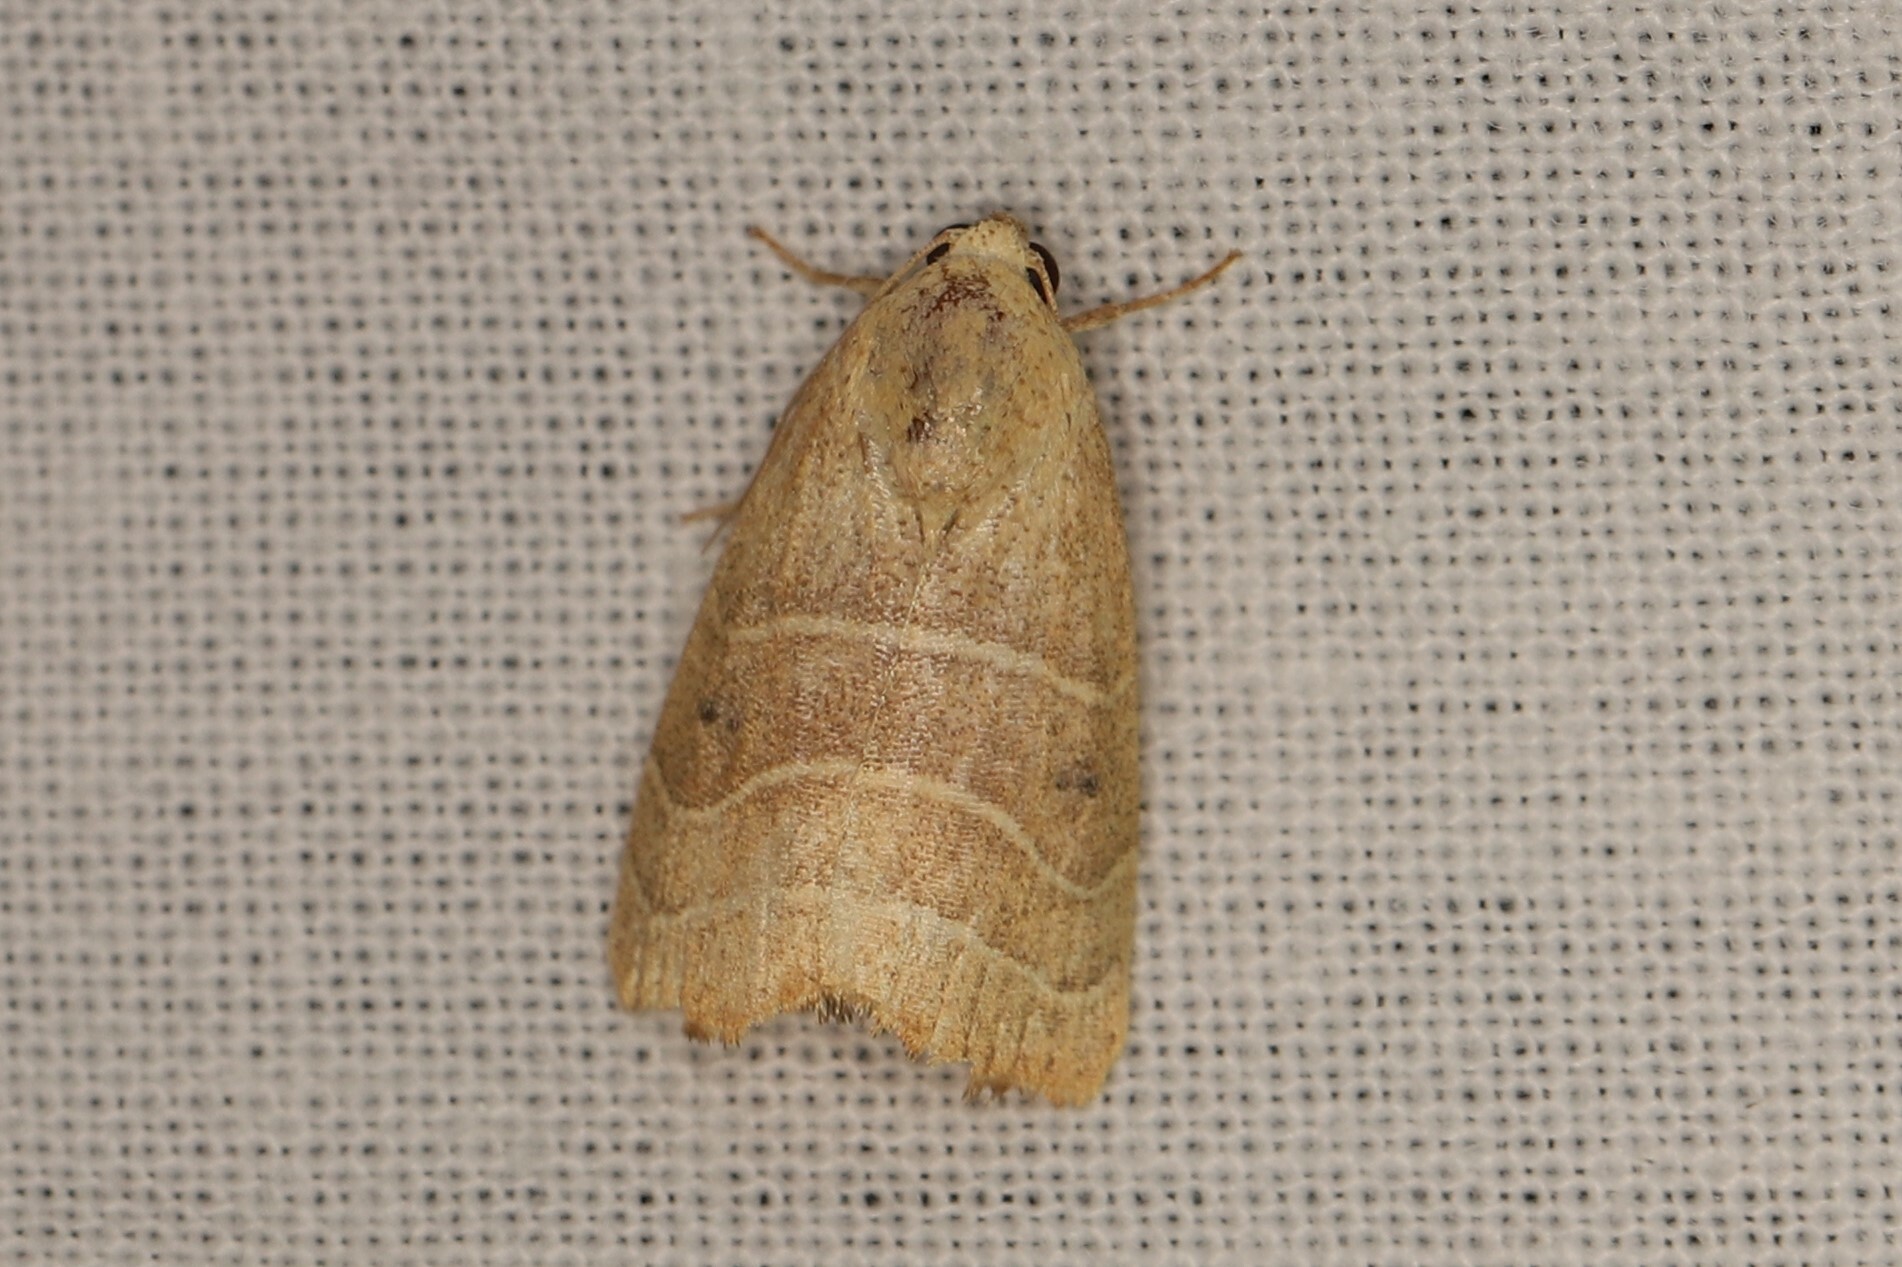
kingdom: Animalia
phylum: Arthropoda
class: Insecta
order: Lepidoptera
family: Noctuidae
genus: Bagisara
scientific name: Bagisara repanda
